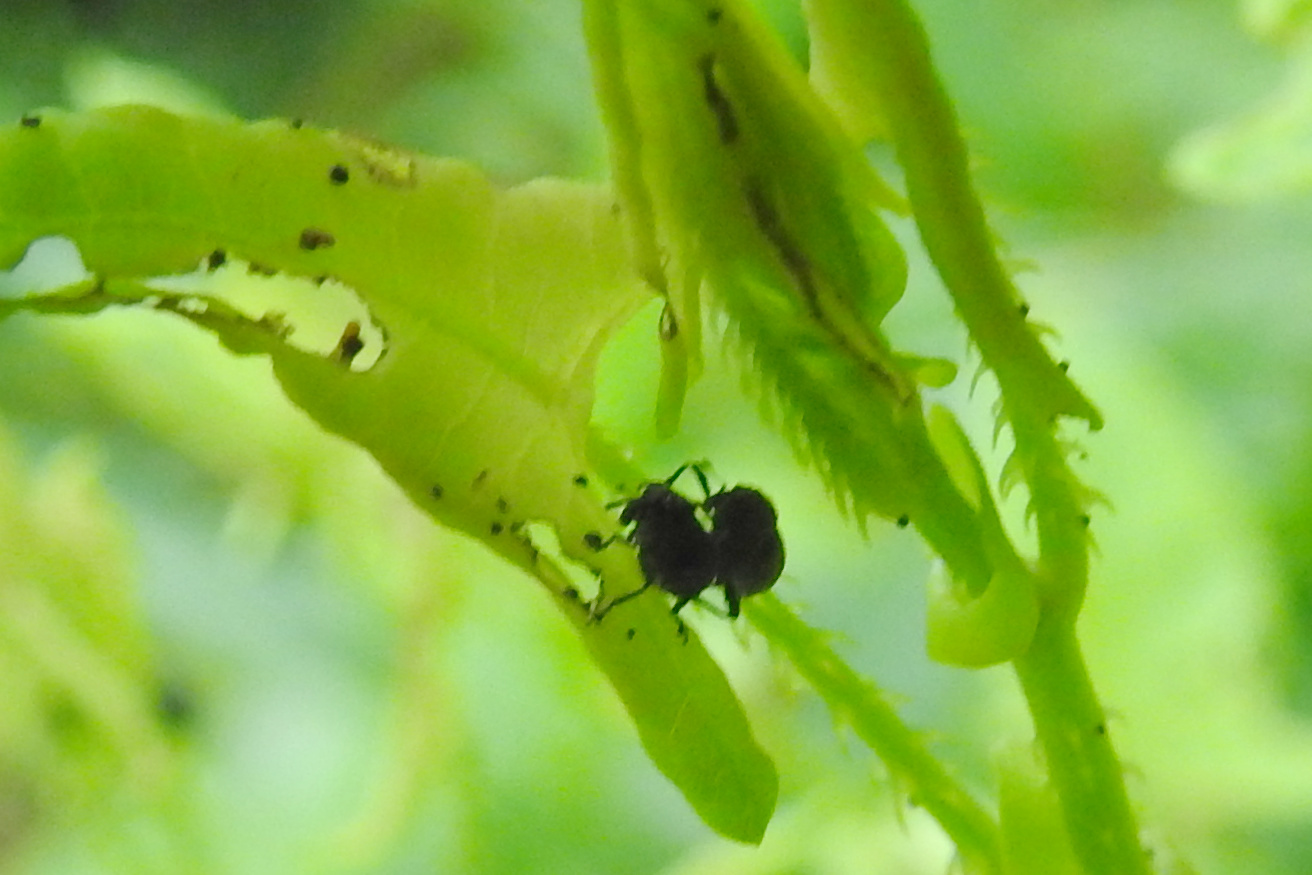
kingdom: Animalia
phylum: Arthropoda
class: Insecta
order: Coleoptera
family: Curculionidae
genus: Rhinoncomimus
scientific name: Rhinoncomimus latipes
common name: Chinese weevil
